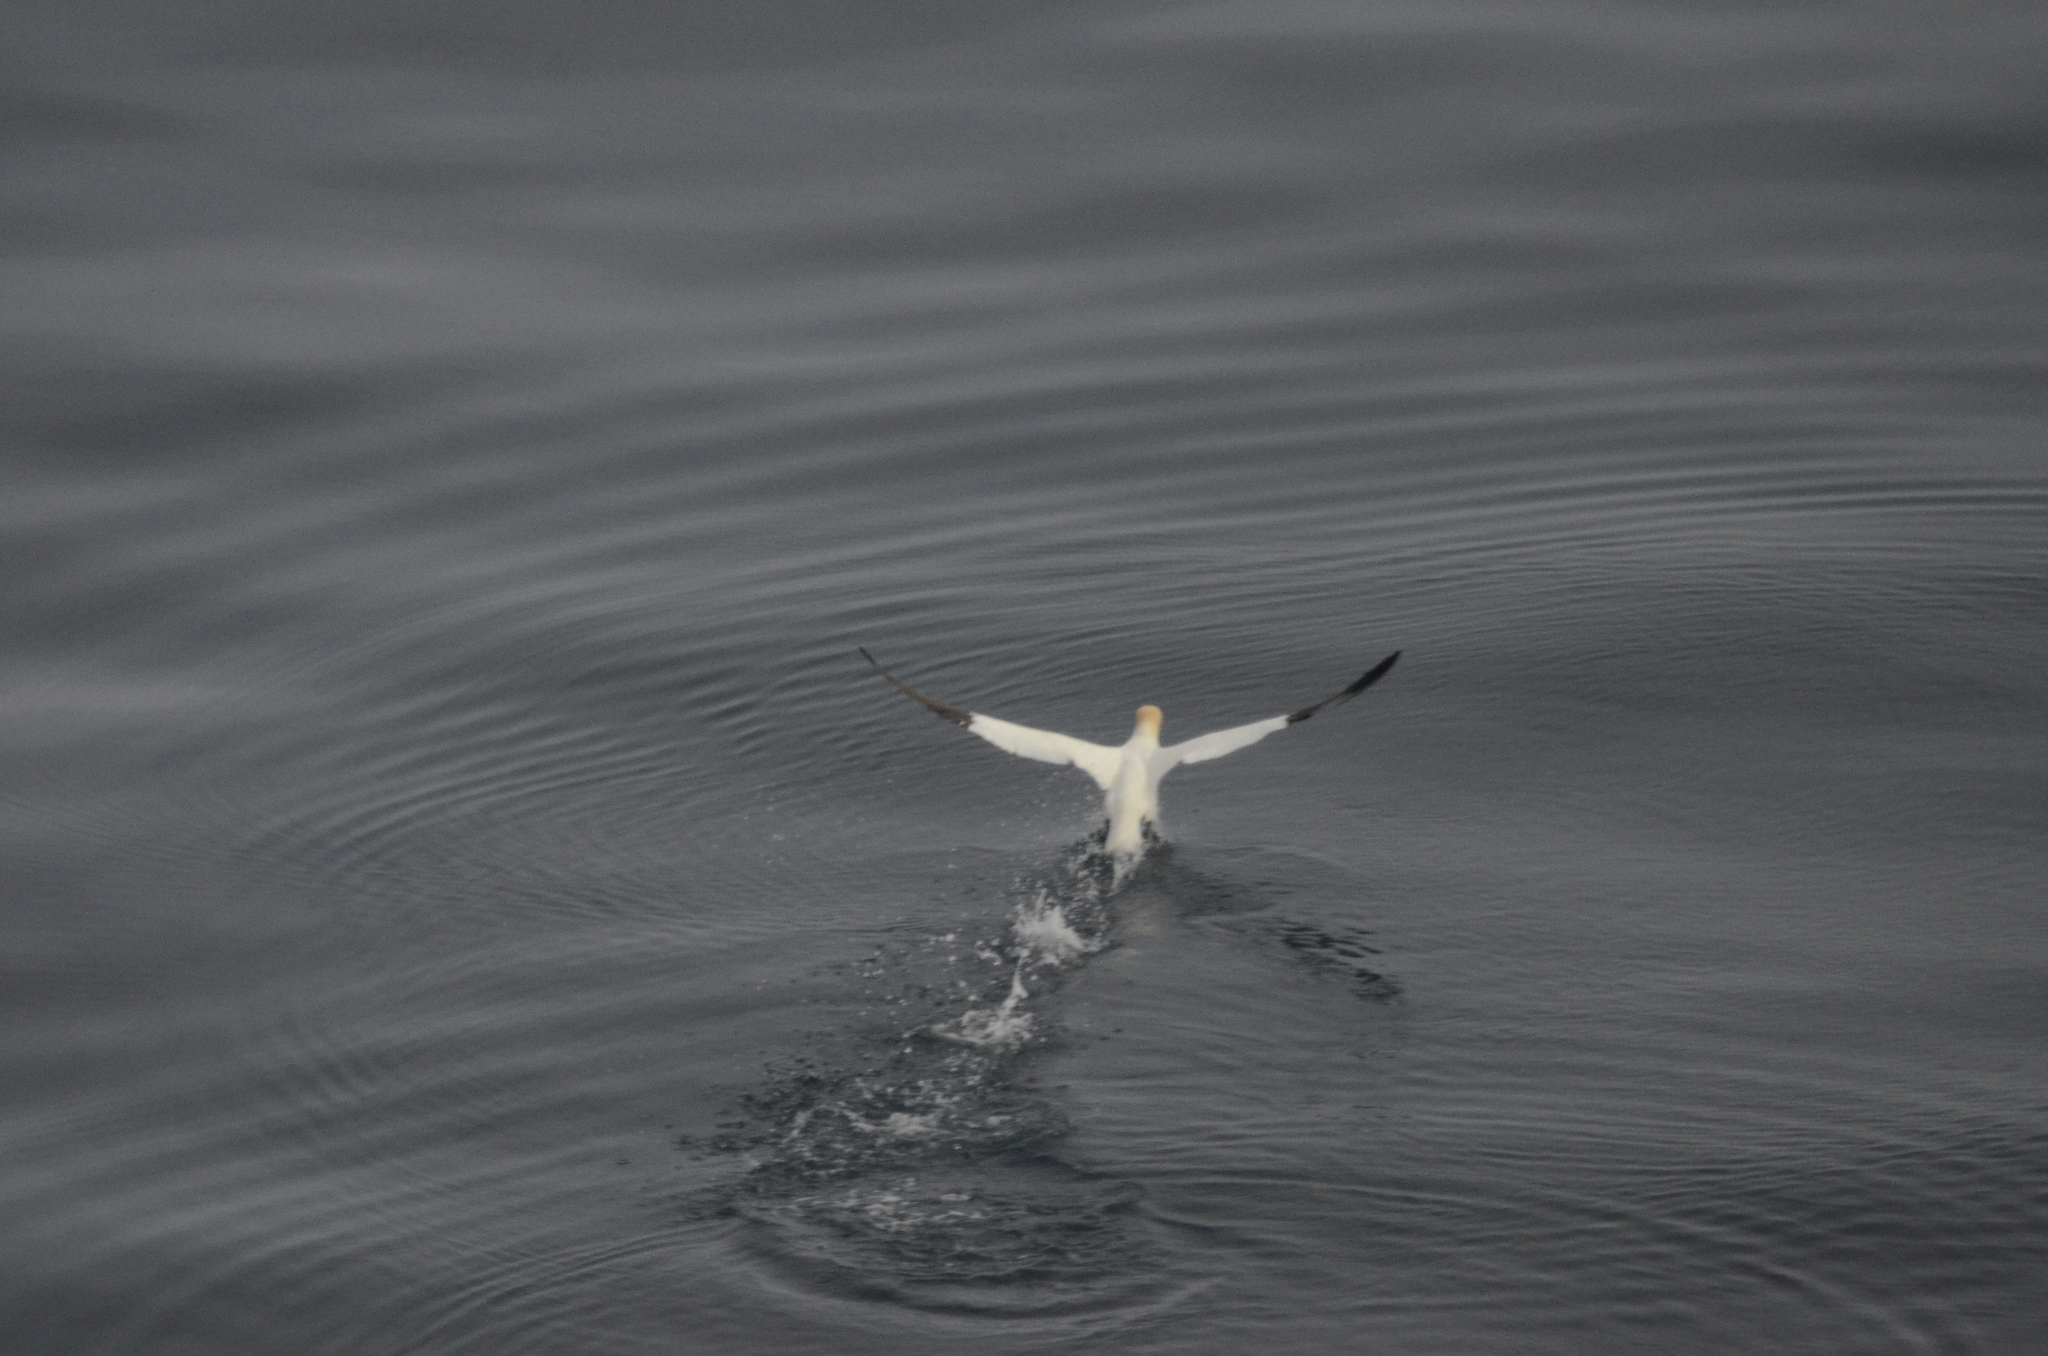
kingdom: Animalia
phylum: Chordata
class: Aves
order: Suliformes
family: Sulidae
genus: Morus
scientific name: Morus bassanus
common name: Northern gannet
